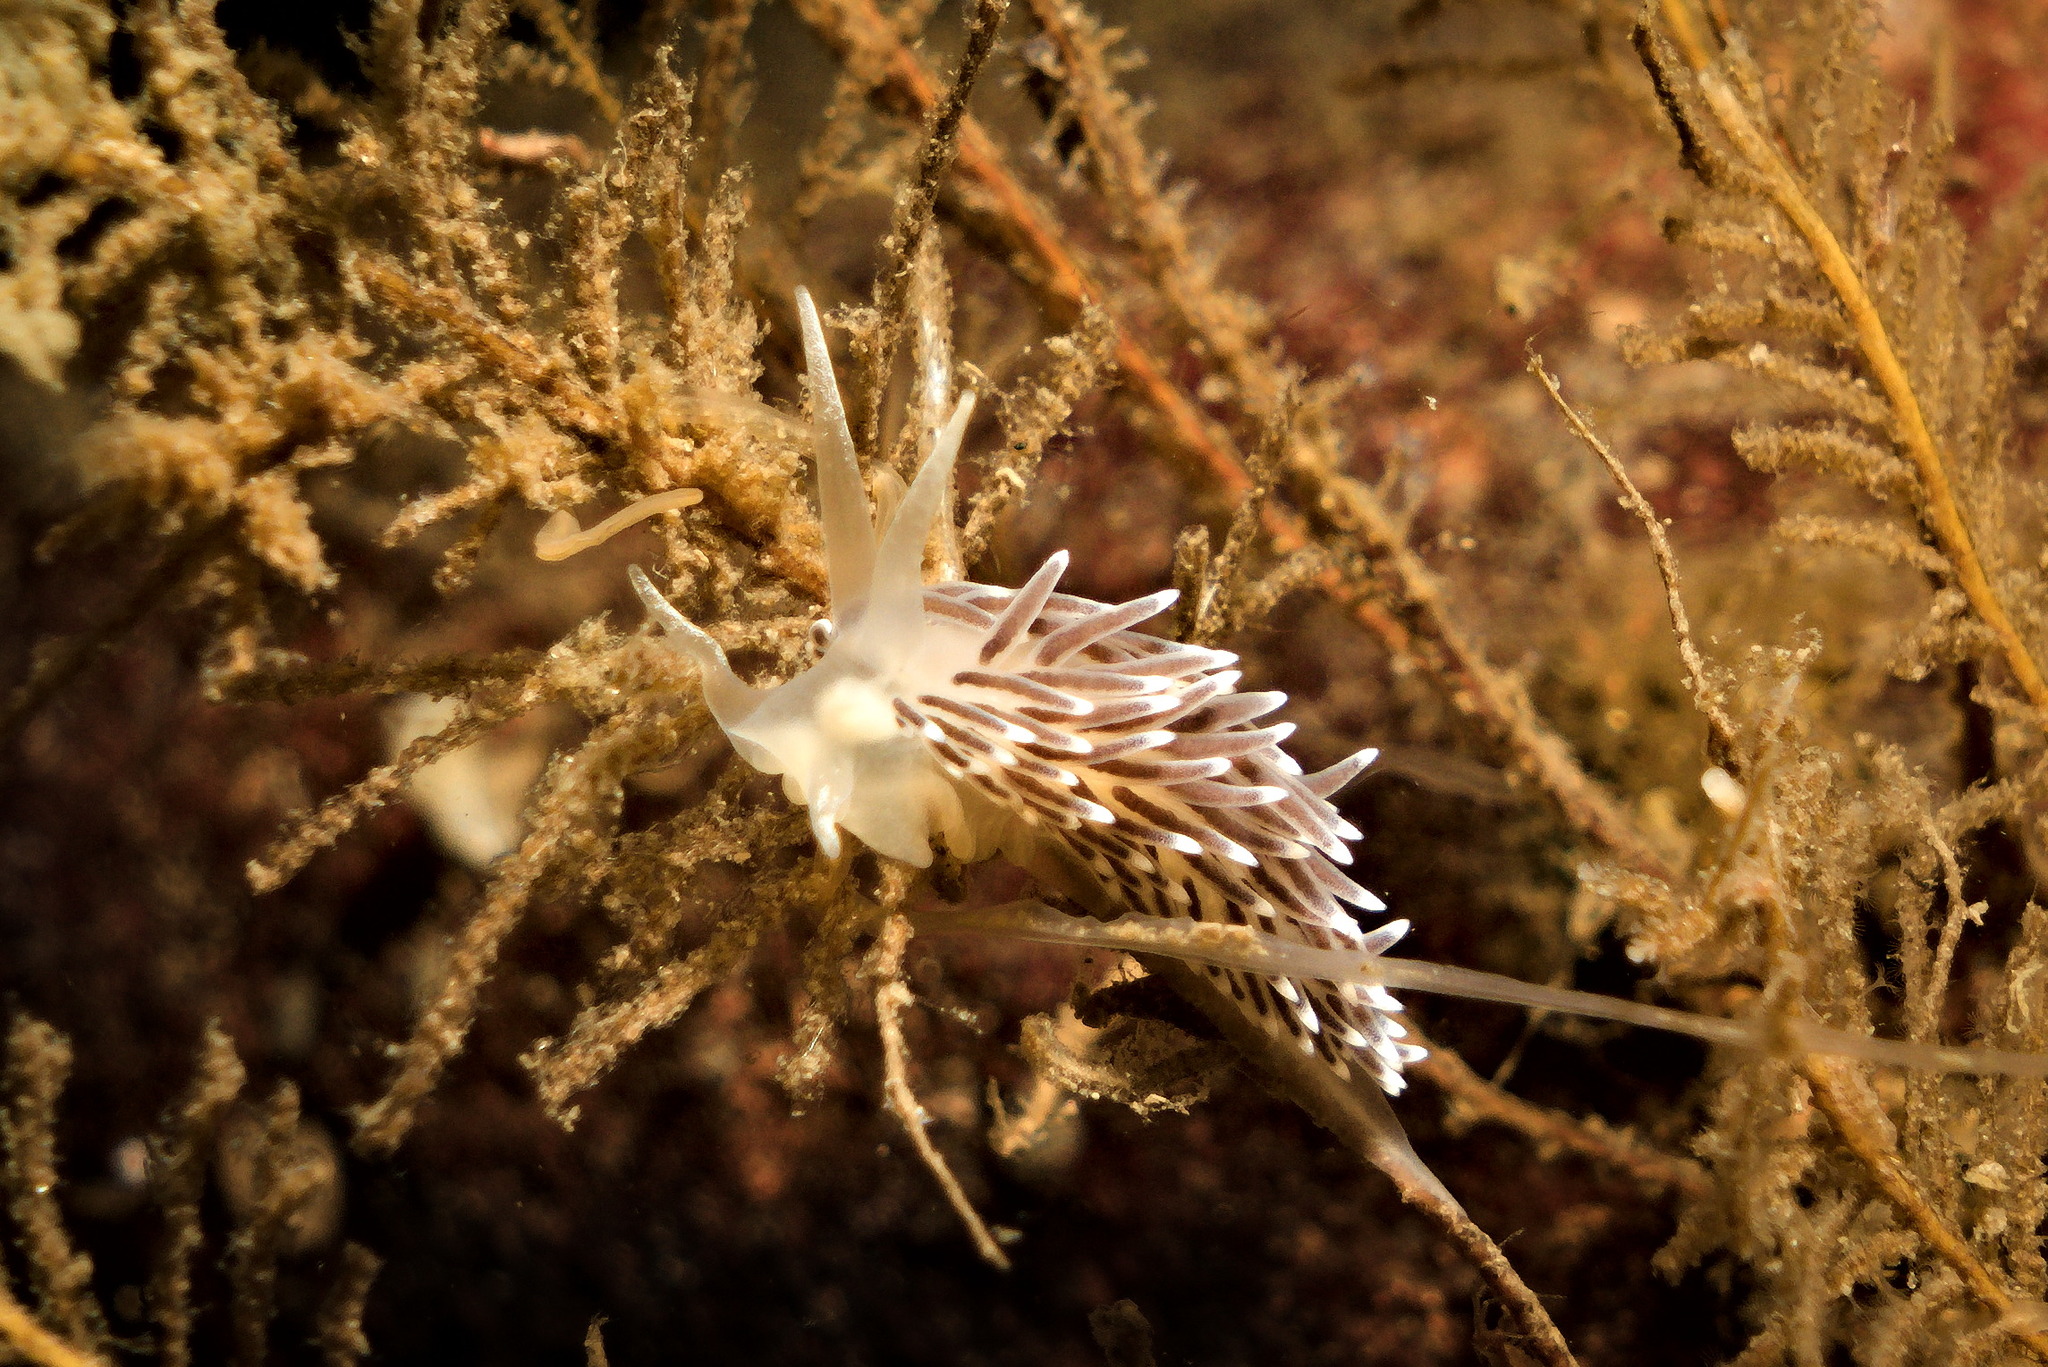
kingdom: Animalia
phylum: Mollusca
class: Gastropoda
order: Nudibranchia
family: Cuthonellidae
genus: Cuthonella
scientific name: Cuthonella concinna
